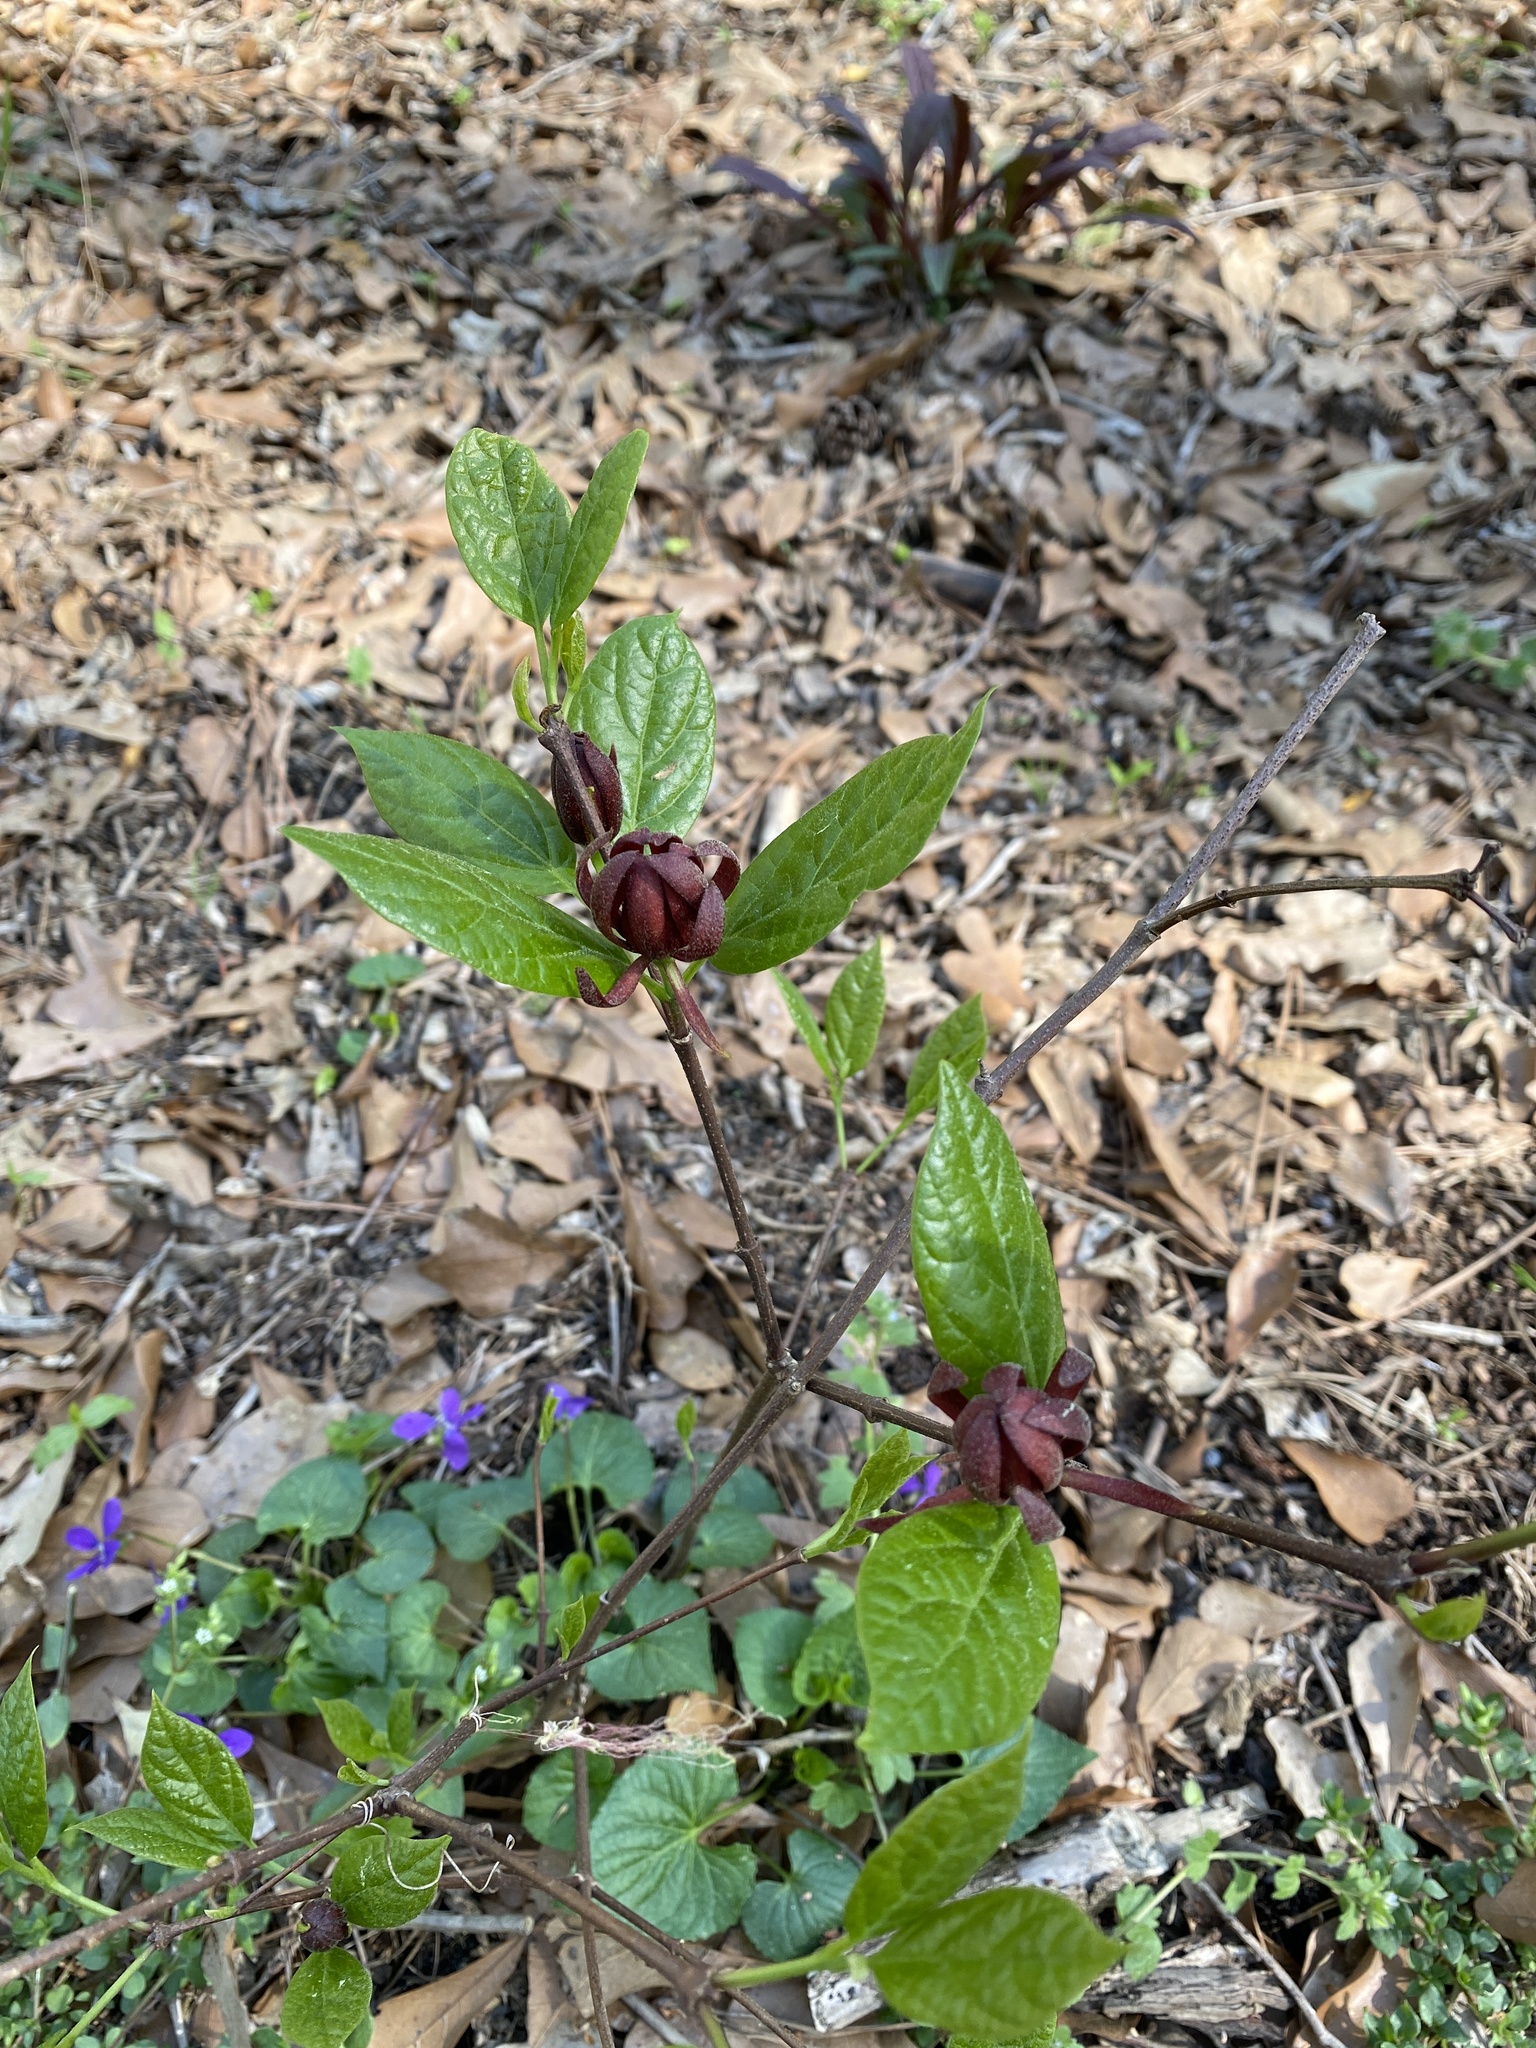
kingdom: Plantae
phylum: Tracheophyta
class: Magnoliopsida
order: Laurales
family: Calycanthaceae
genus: Calycanthus
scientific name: Calycanthus floridus
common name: Carolina-allspice
